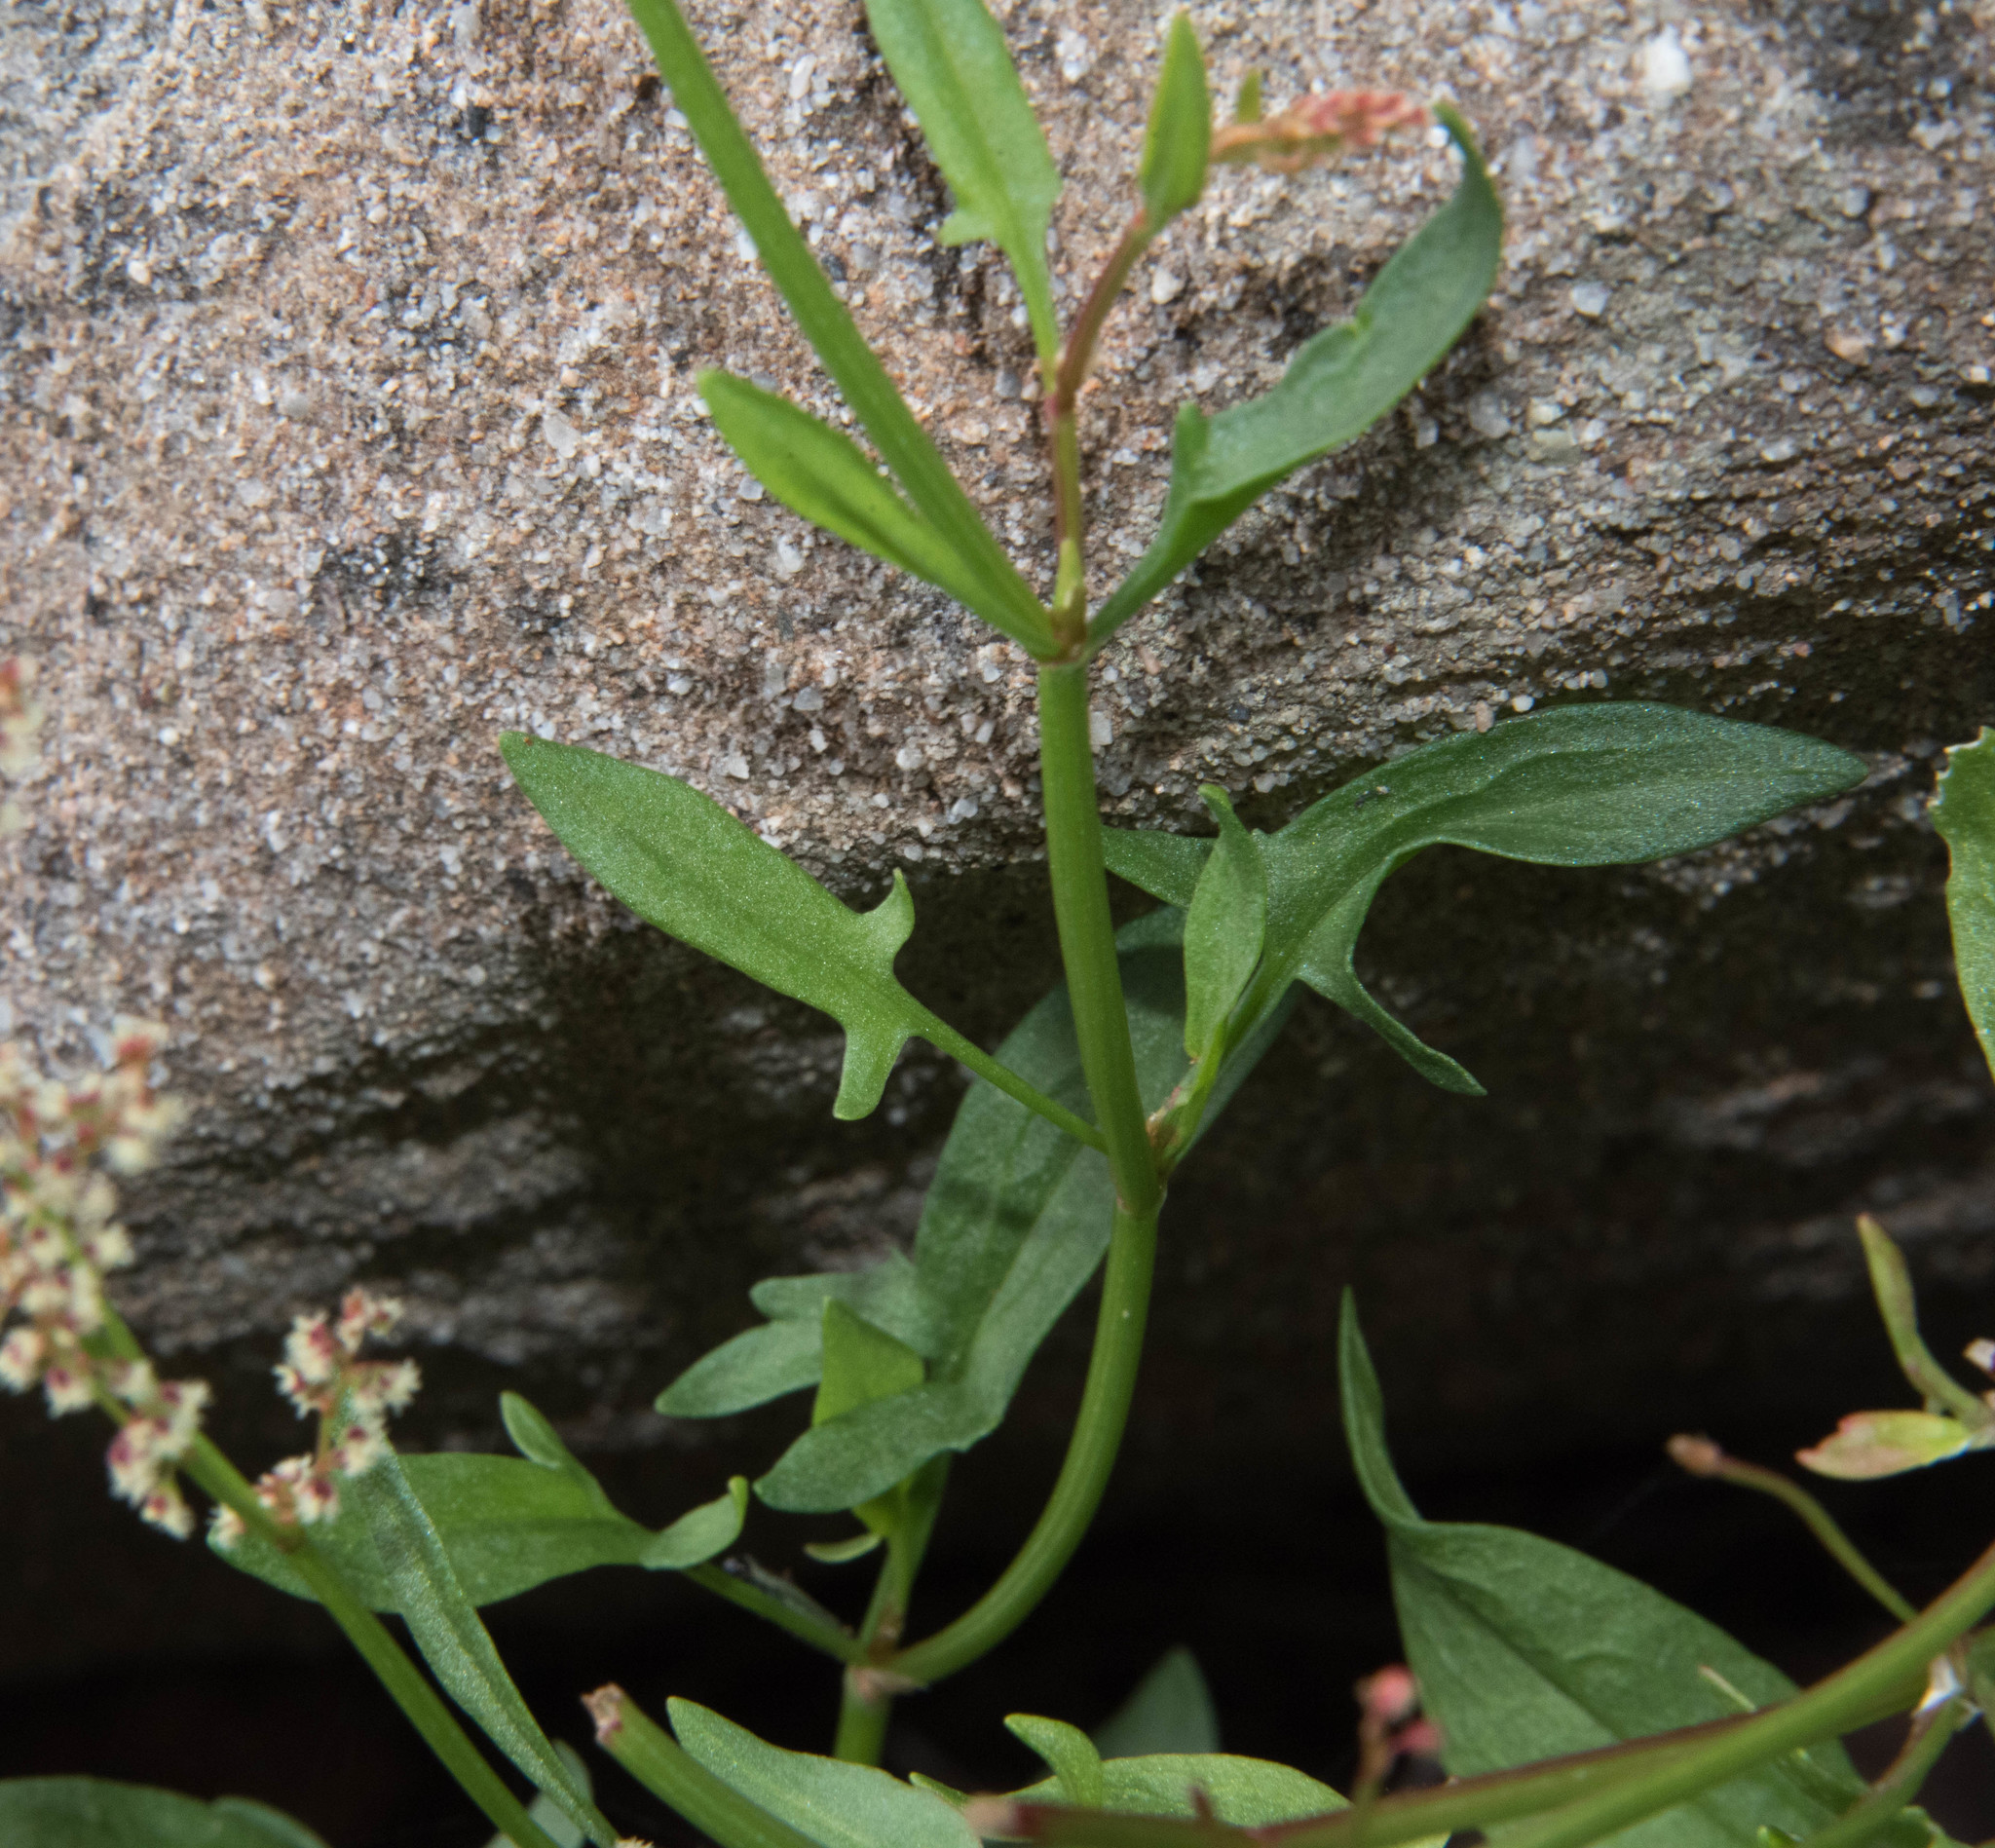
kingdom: Plantae
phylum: Tracheophyta
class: Magnoliopsida
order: Caryophyllales
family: Polygonaceae
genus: Rumex
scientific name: Rumex acetosella
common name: Common sheep sorrel
